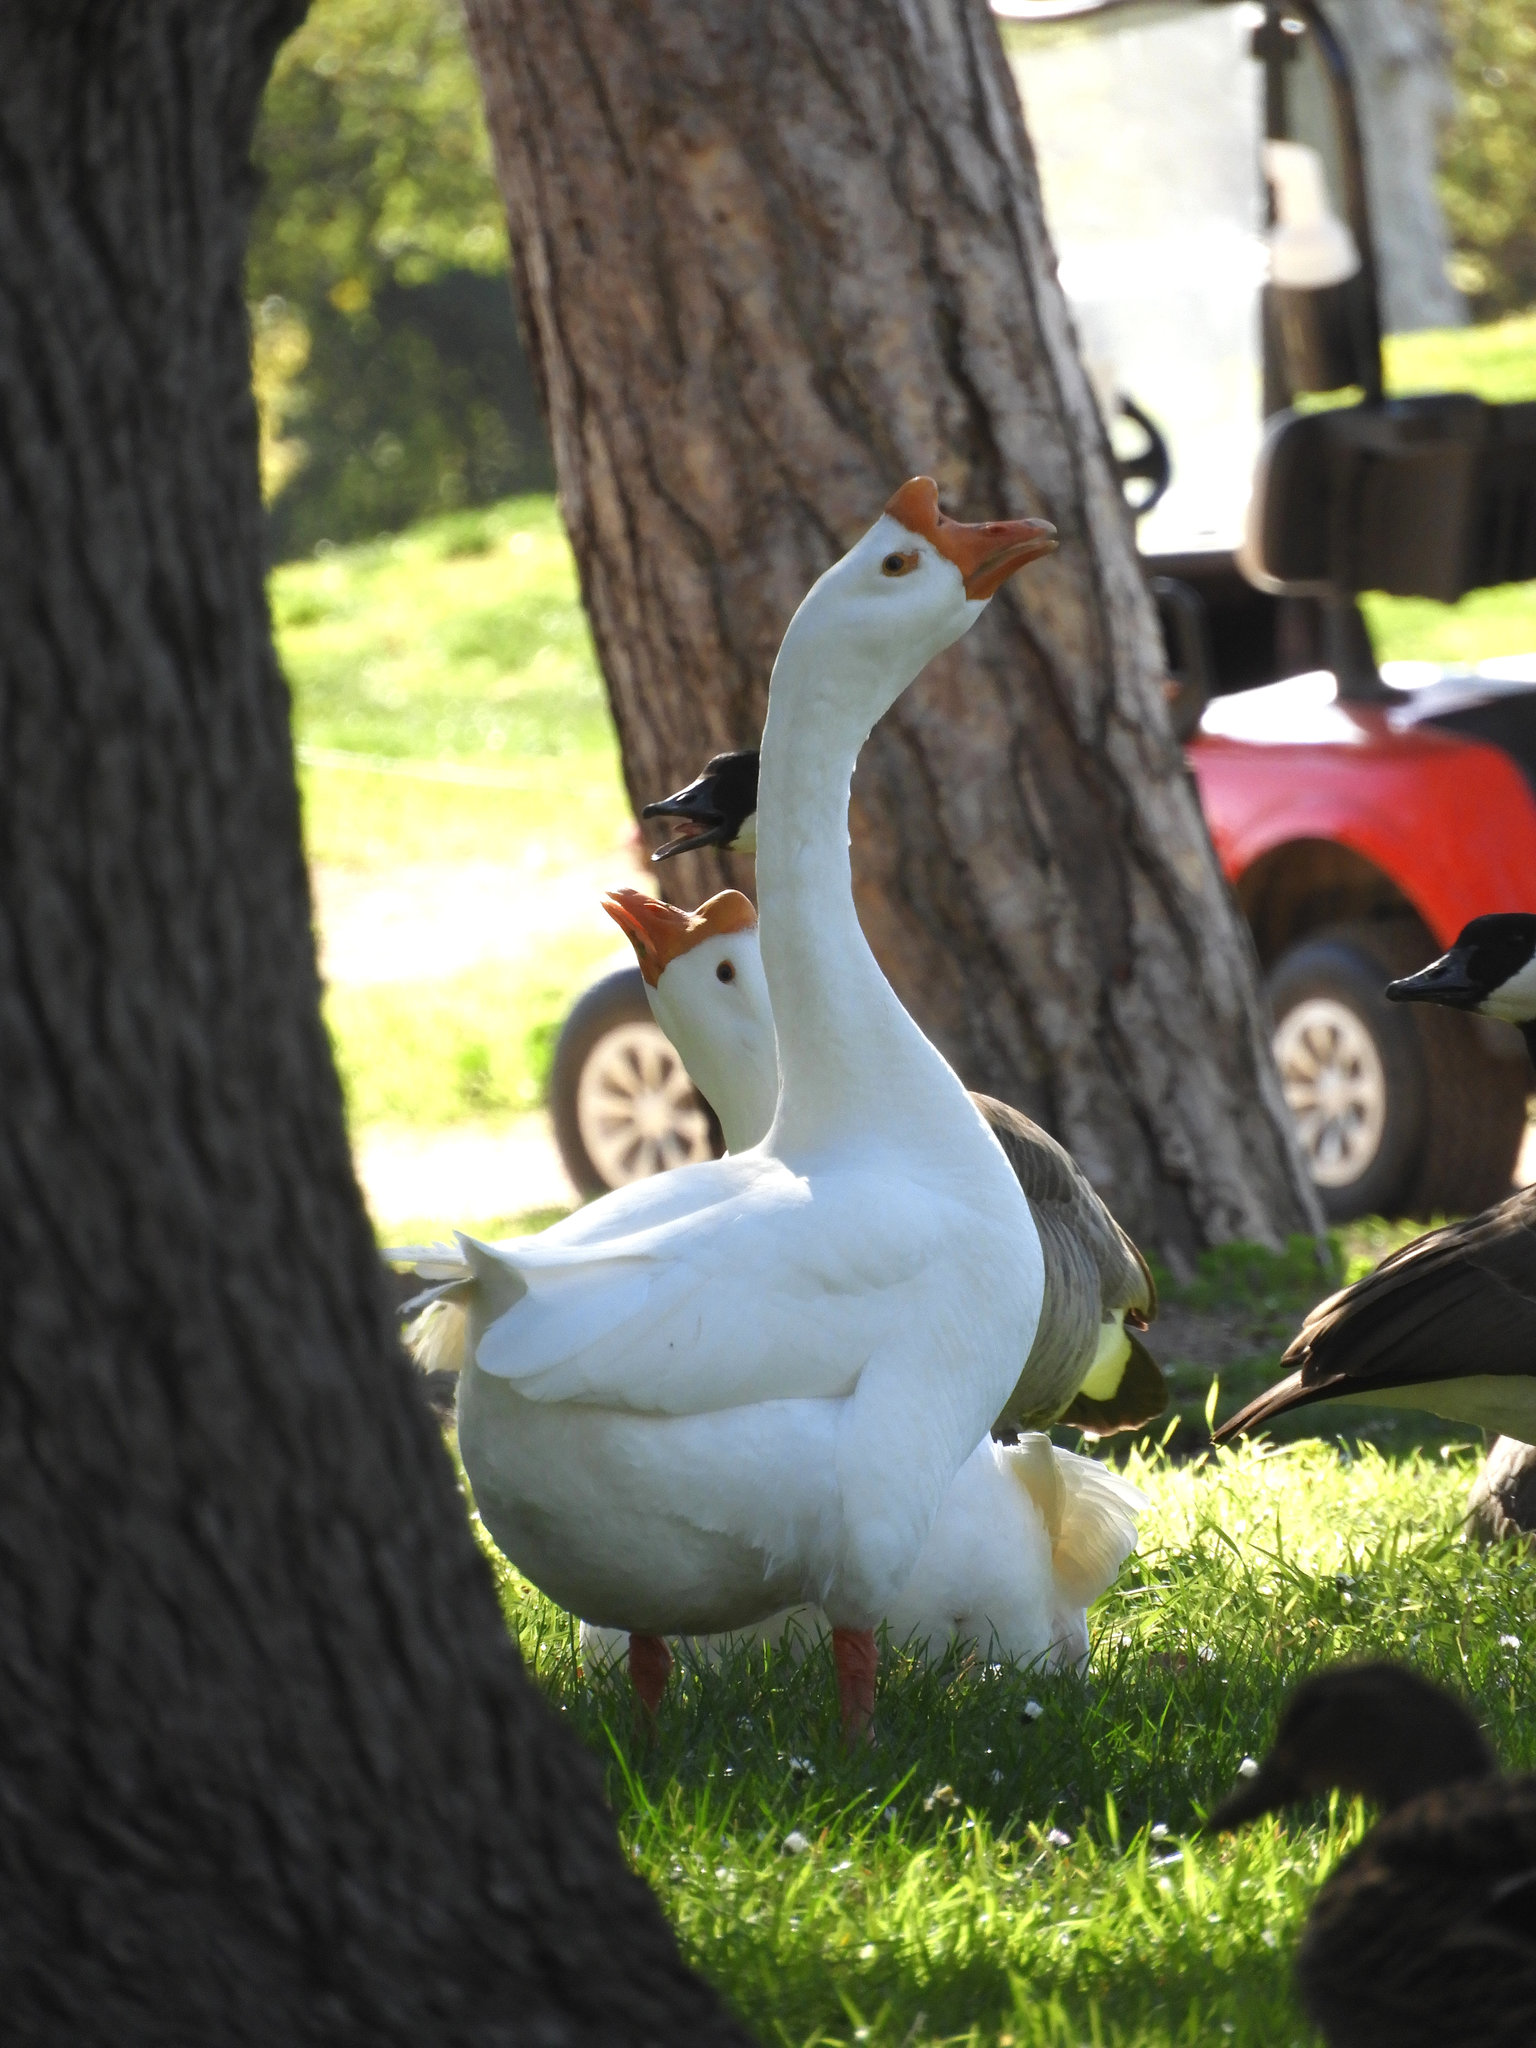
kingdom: Animalia
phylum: Chordata
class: Aves
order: Anseriformes
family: Anatidae
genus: Anser
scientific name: Anser cygnoides
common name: Swan goose
